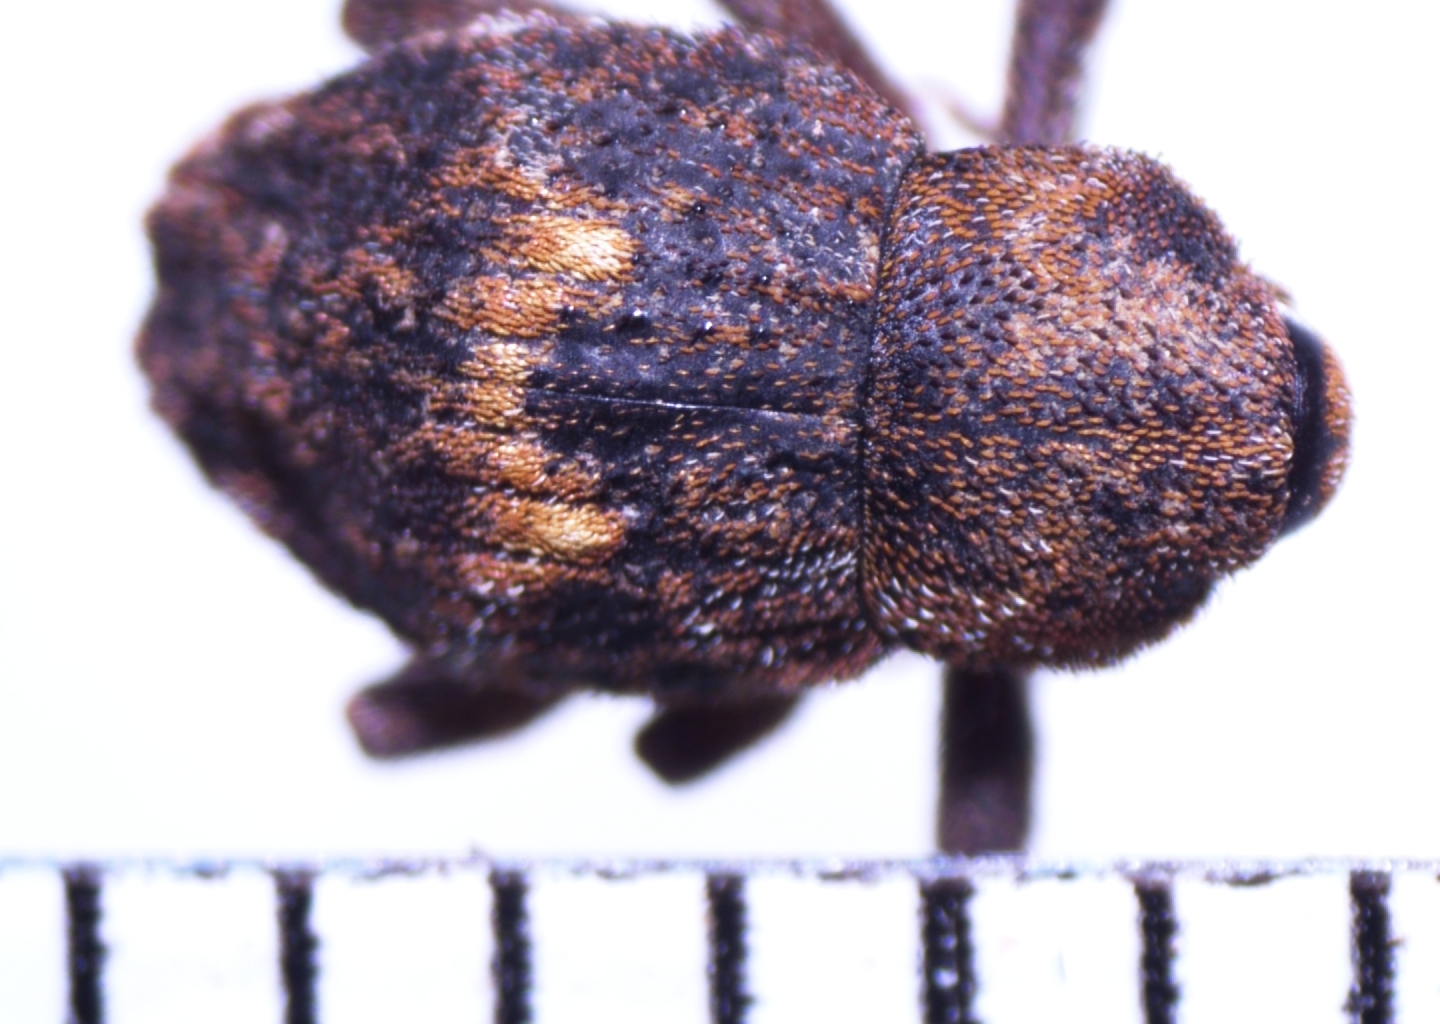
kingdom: Animalia
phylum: Arthropoda
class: Insecta
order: Coleoptera
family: Curculionidae
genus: Elytroteinus
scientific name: Elytroteinus geophilus
